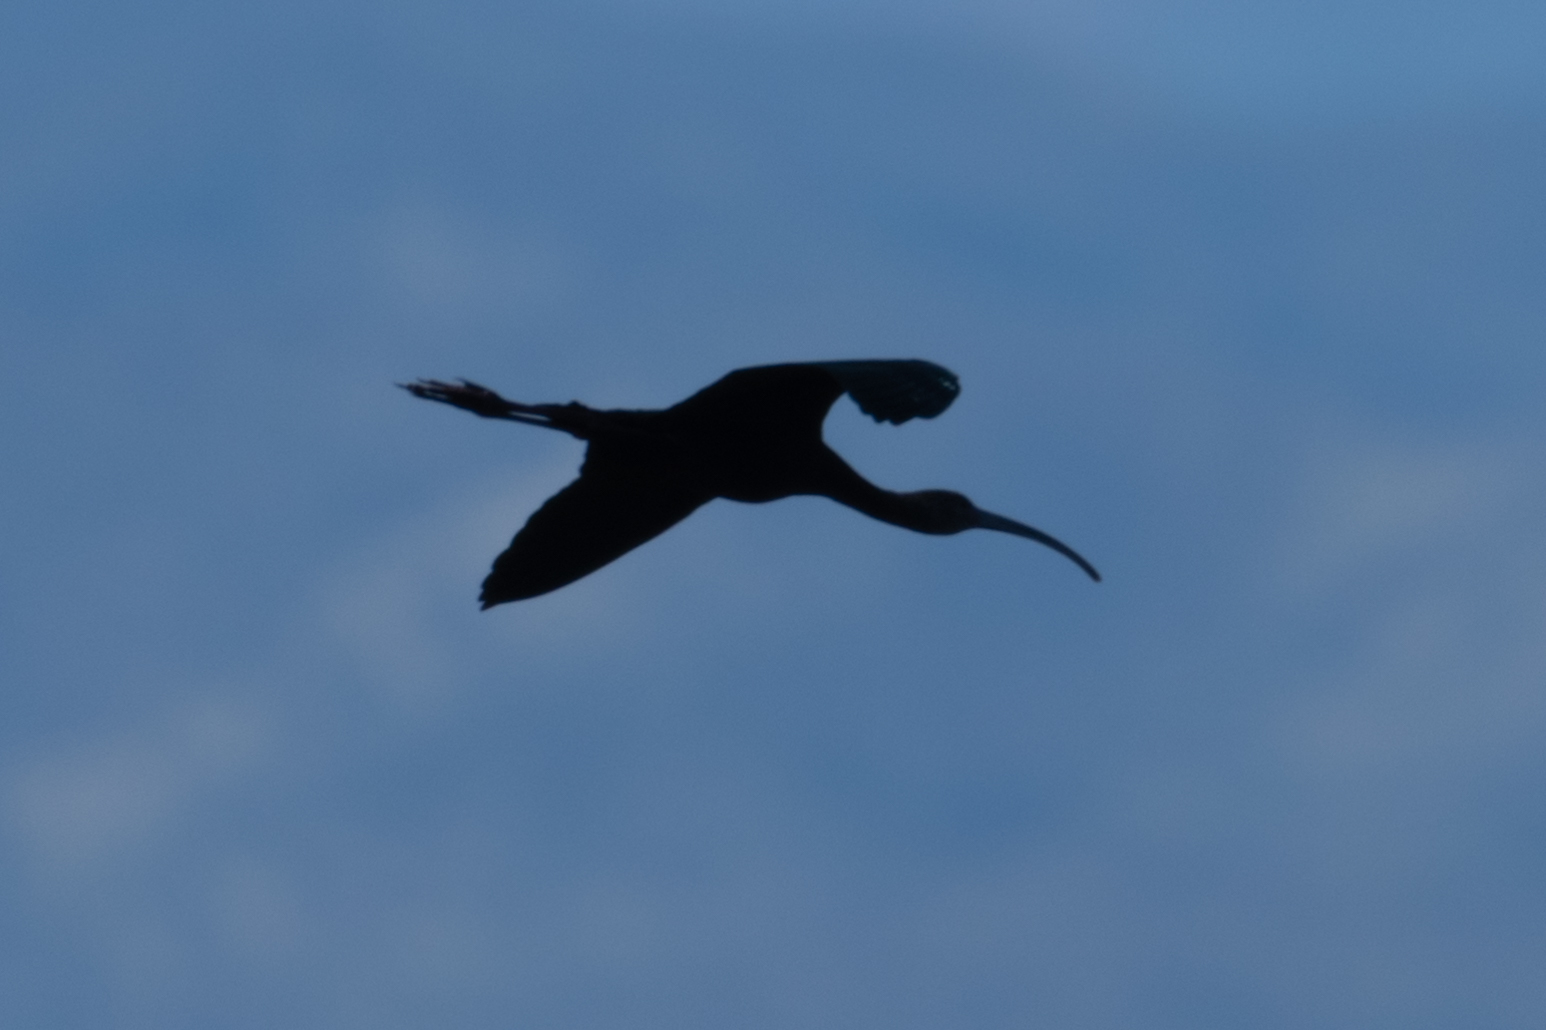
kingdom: Animalia
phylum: Chordata
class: Aves
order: Pelecaniformes
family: Threskiornithidae
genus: Plegadis
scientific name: Plegadis chihi
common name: White-faced ibis
